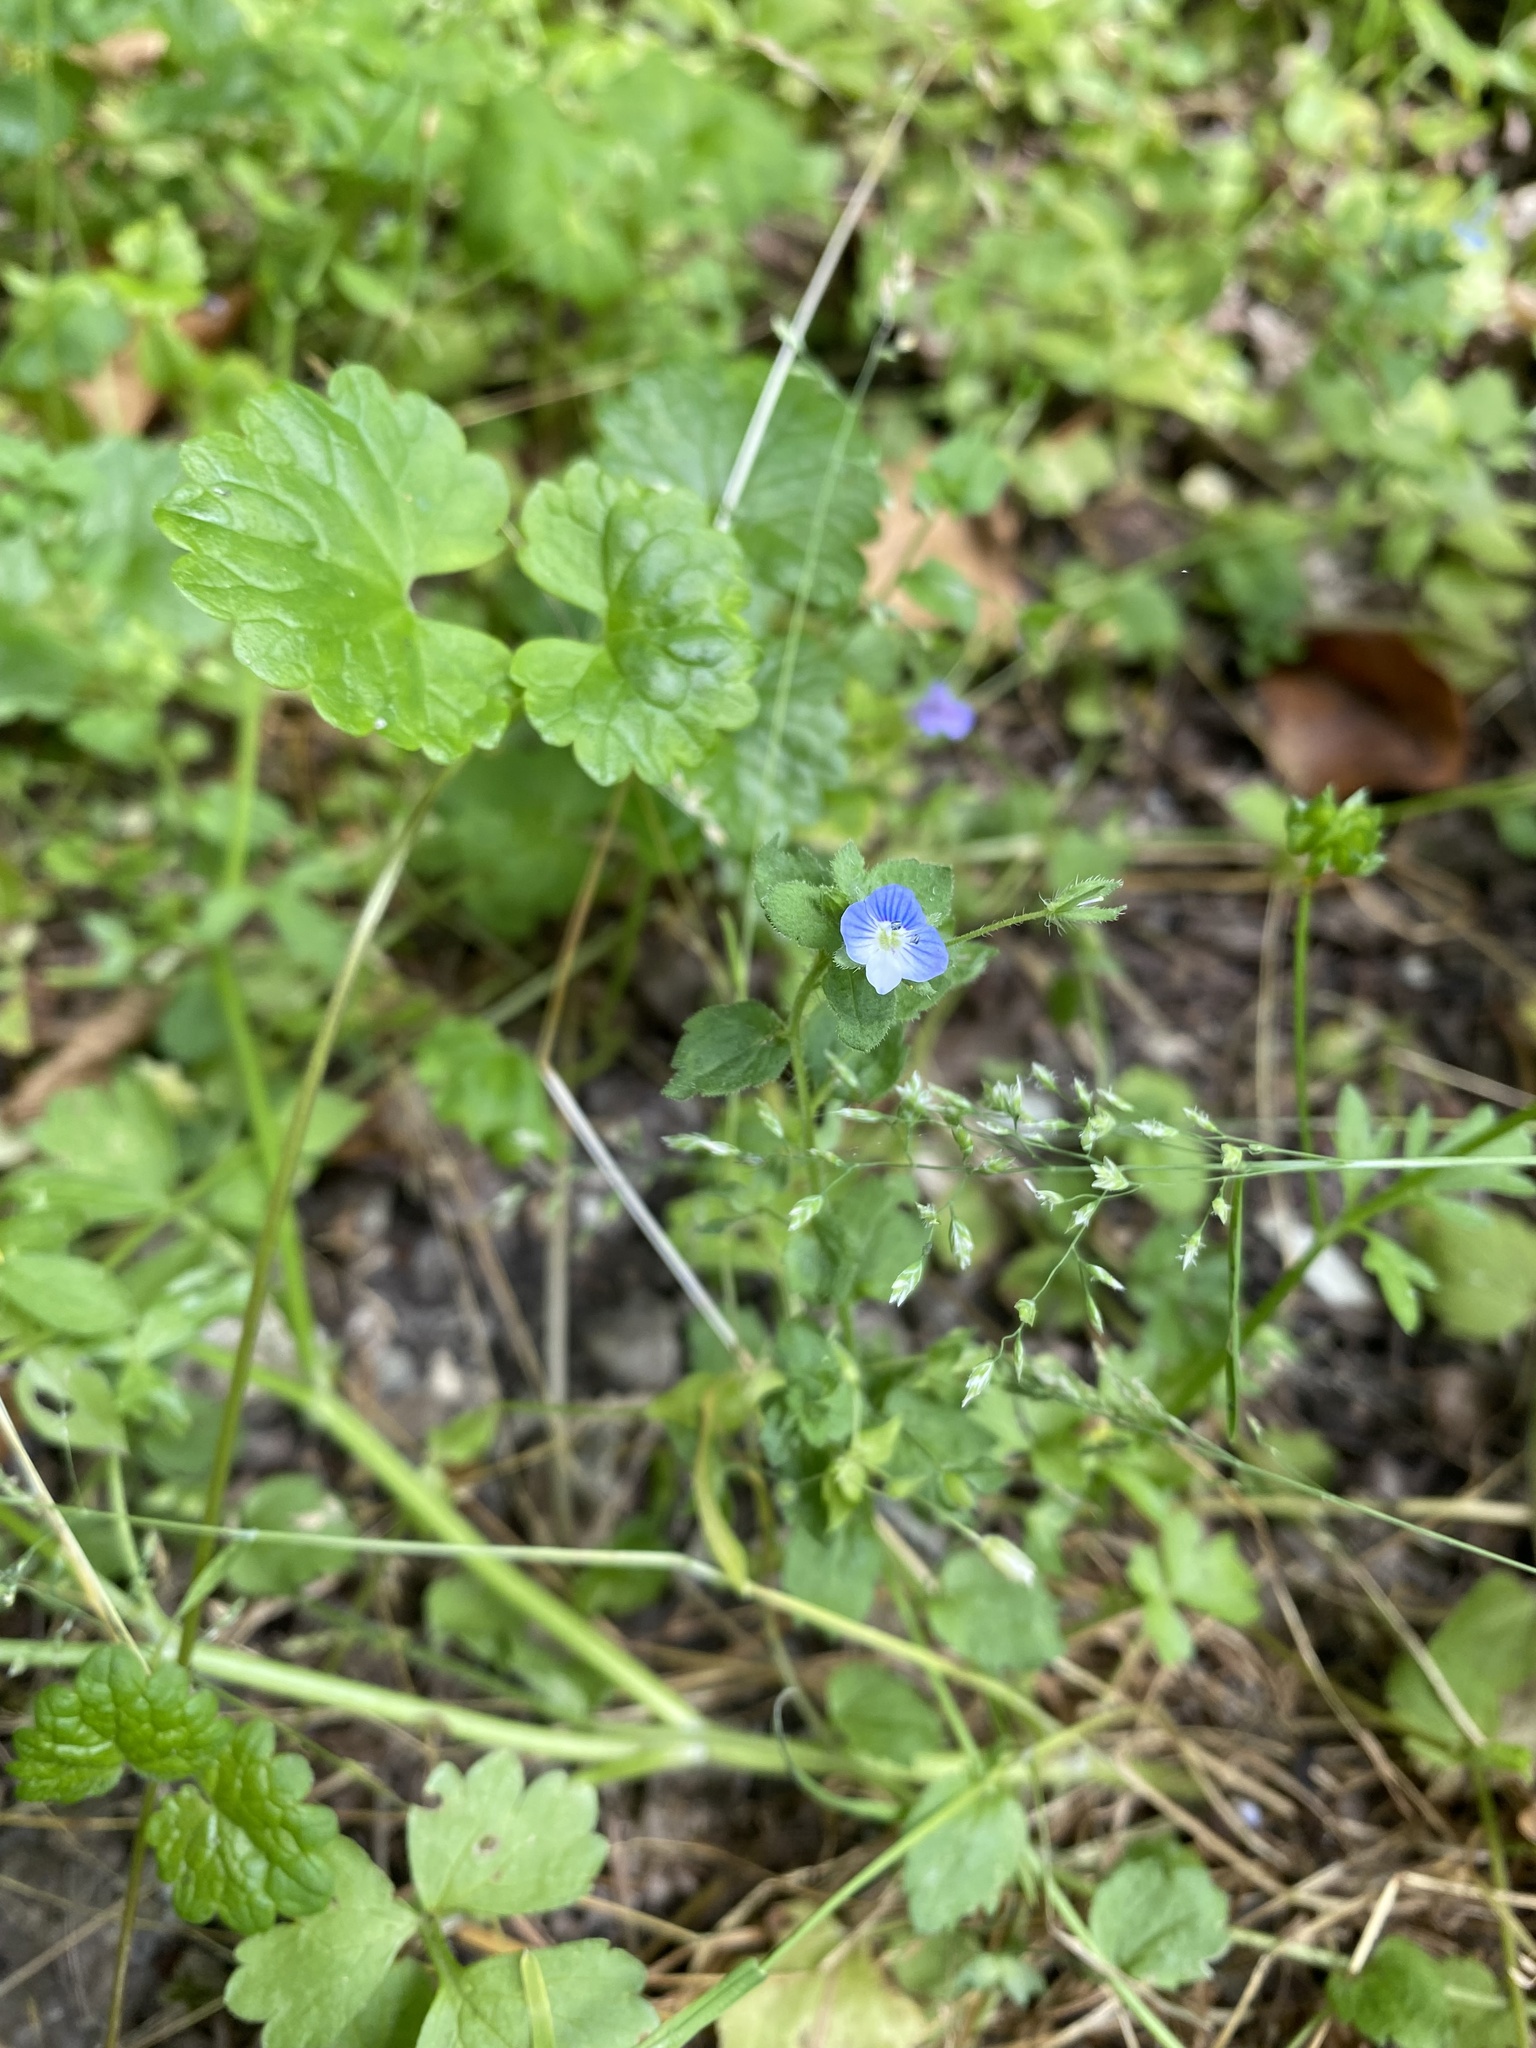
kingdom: Plantae
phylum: Tracheophyta
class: Magnoliopsida
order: Lamiales
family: Plantaginaceae
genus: Veronica
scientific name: Veronica persica
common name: Common field-speedwell
